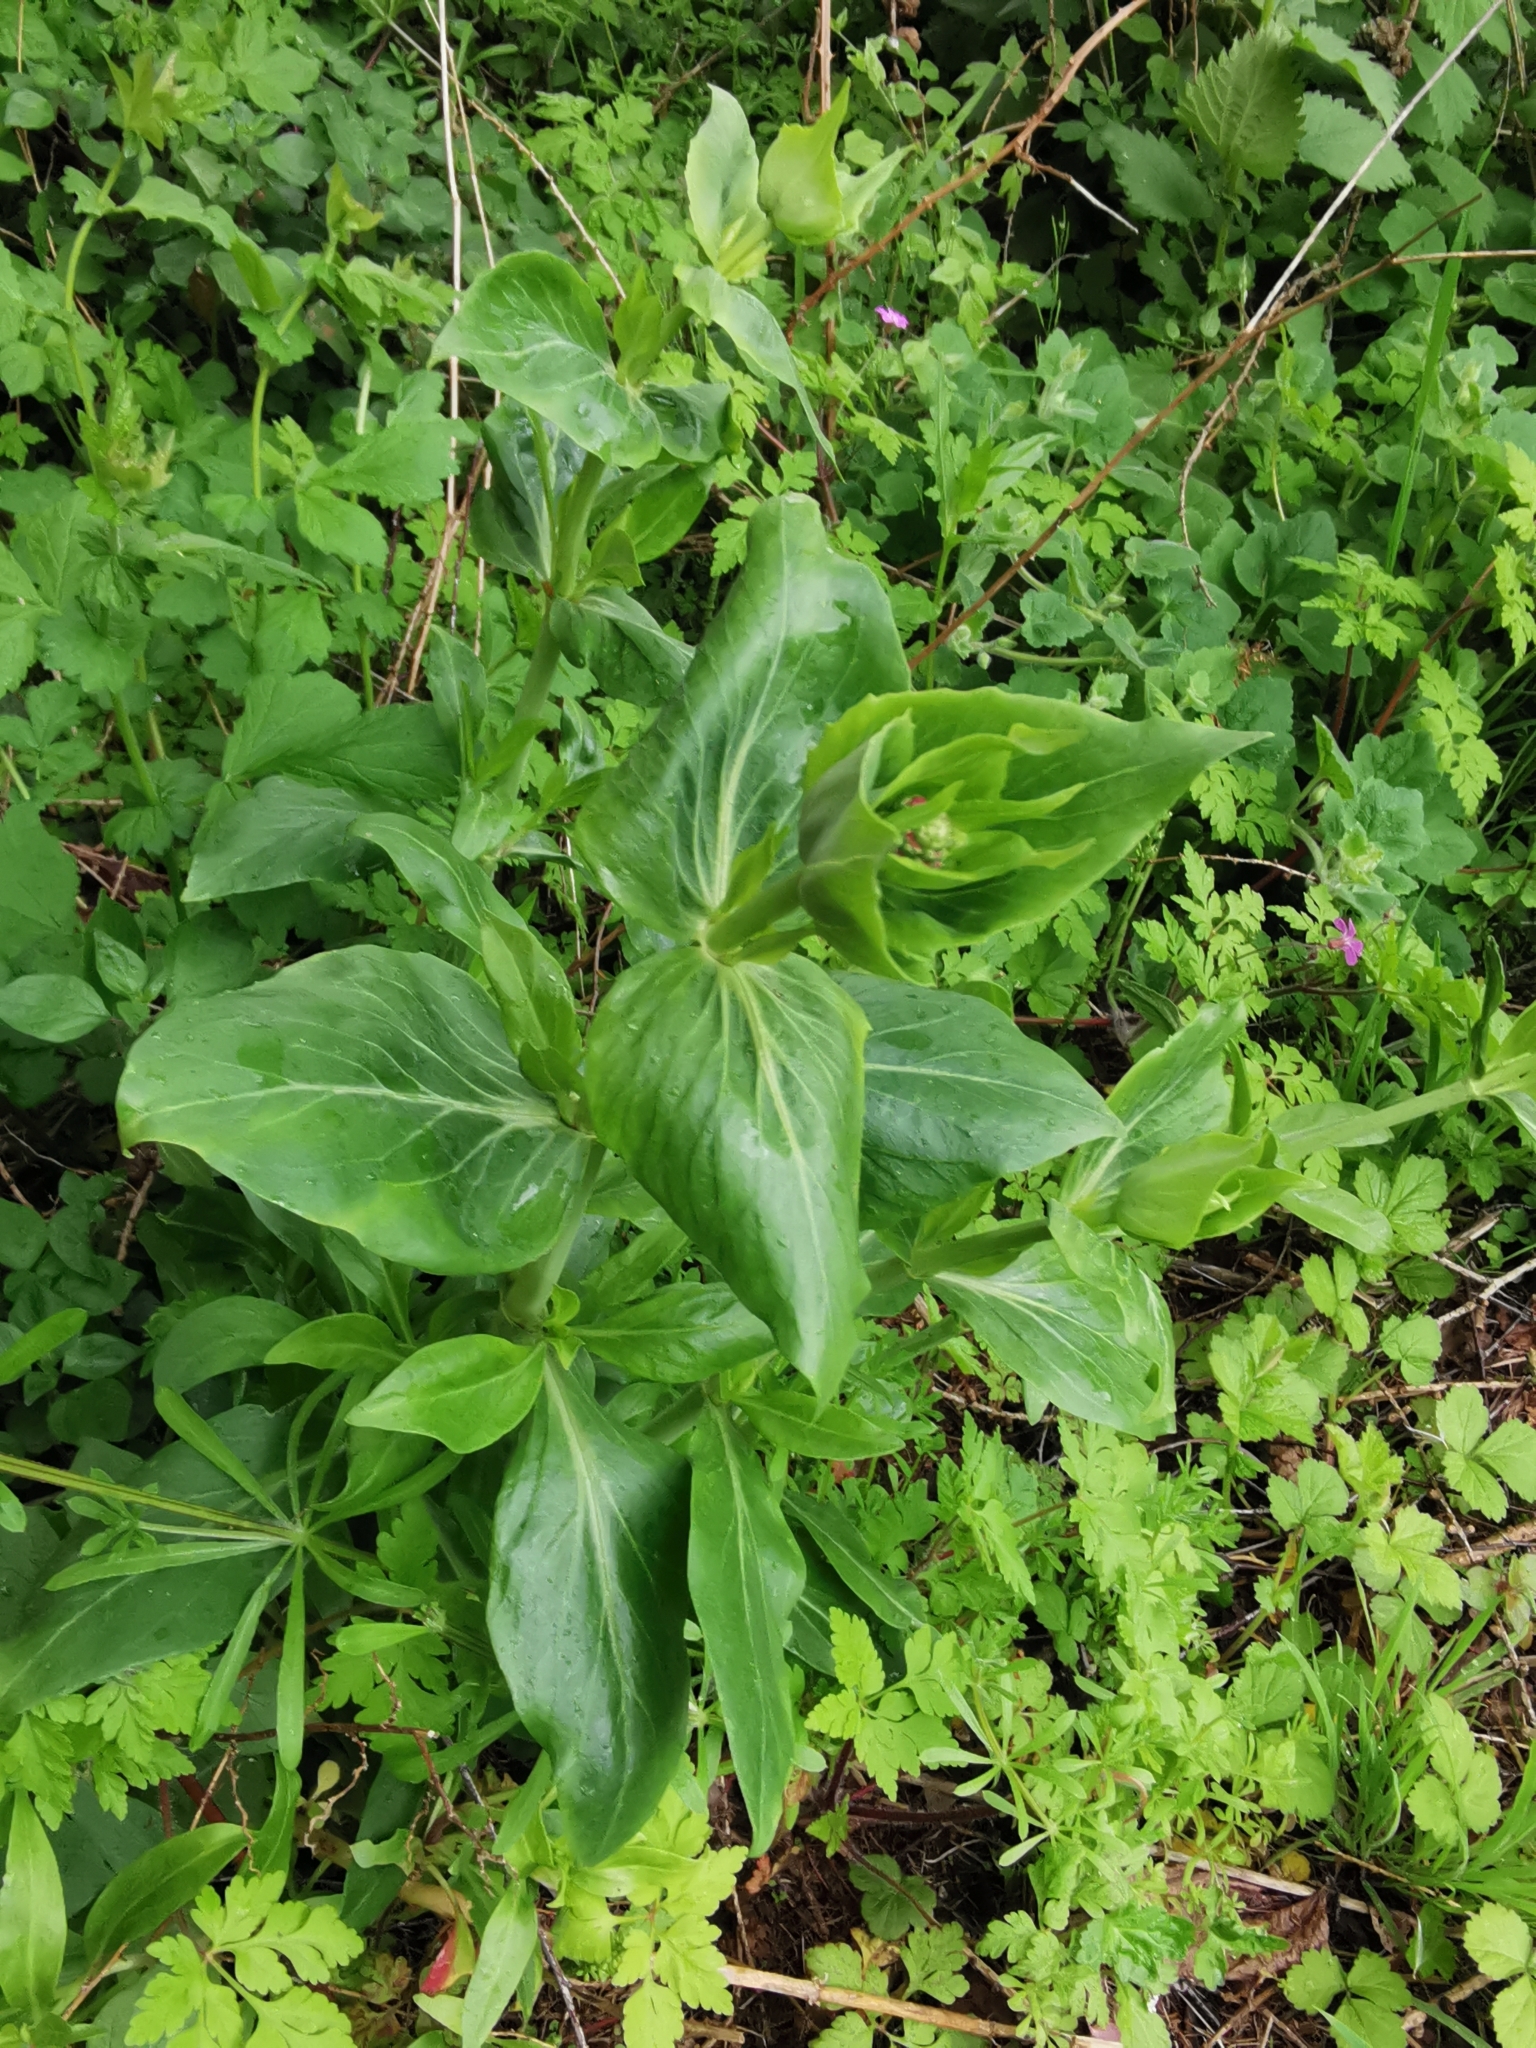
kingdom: Plantae
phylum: Tracheophyta
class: Magnoliopsida
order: Dipsacales
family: Caprifoliaceae
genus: Centranthus
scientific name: Centranthus ruber
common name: Red valerian
